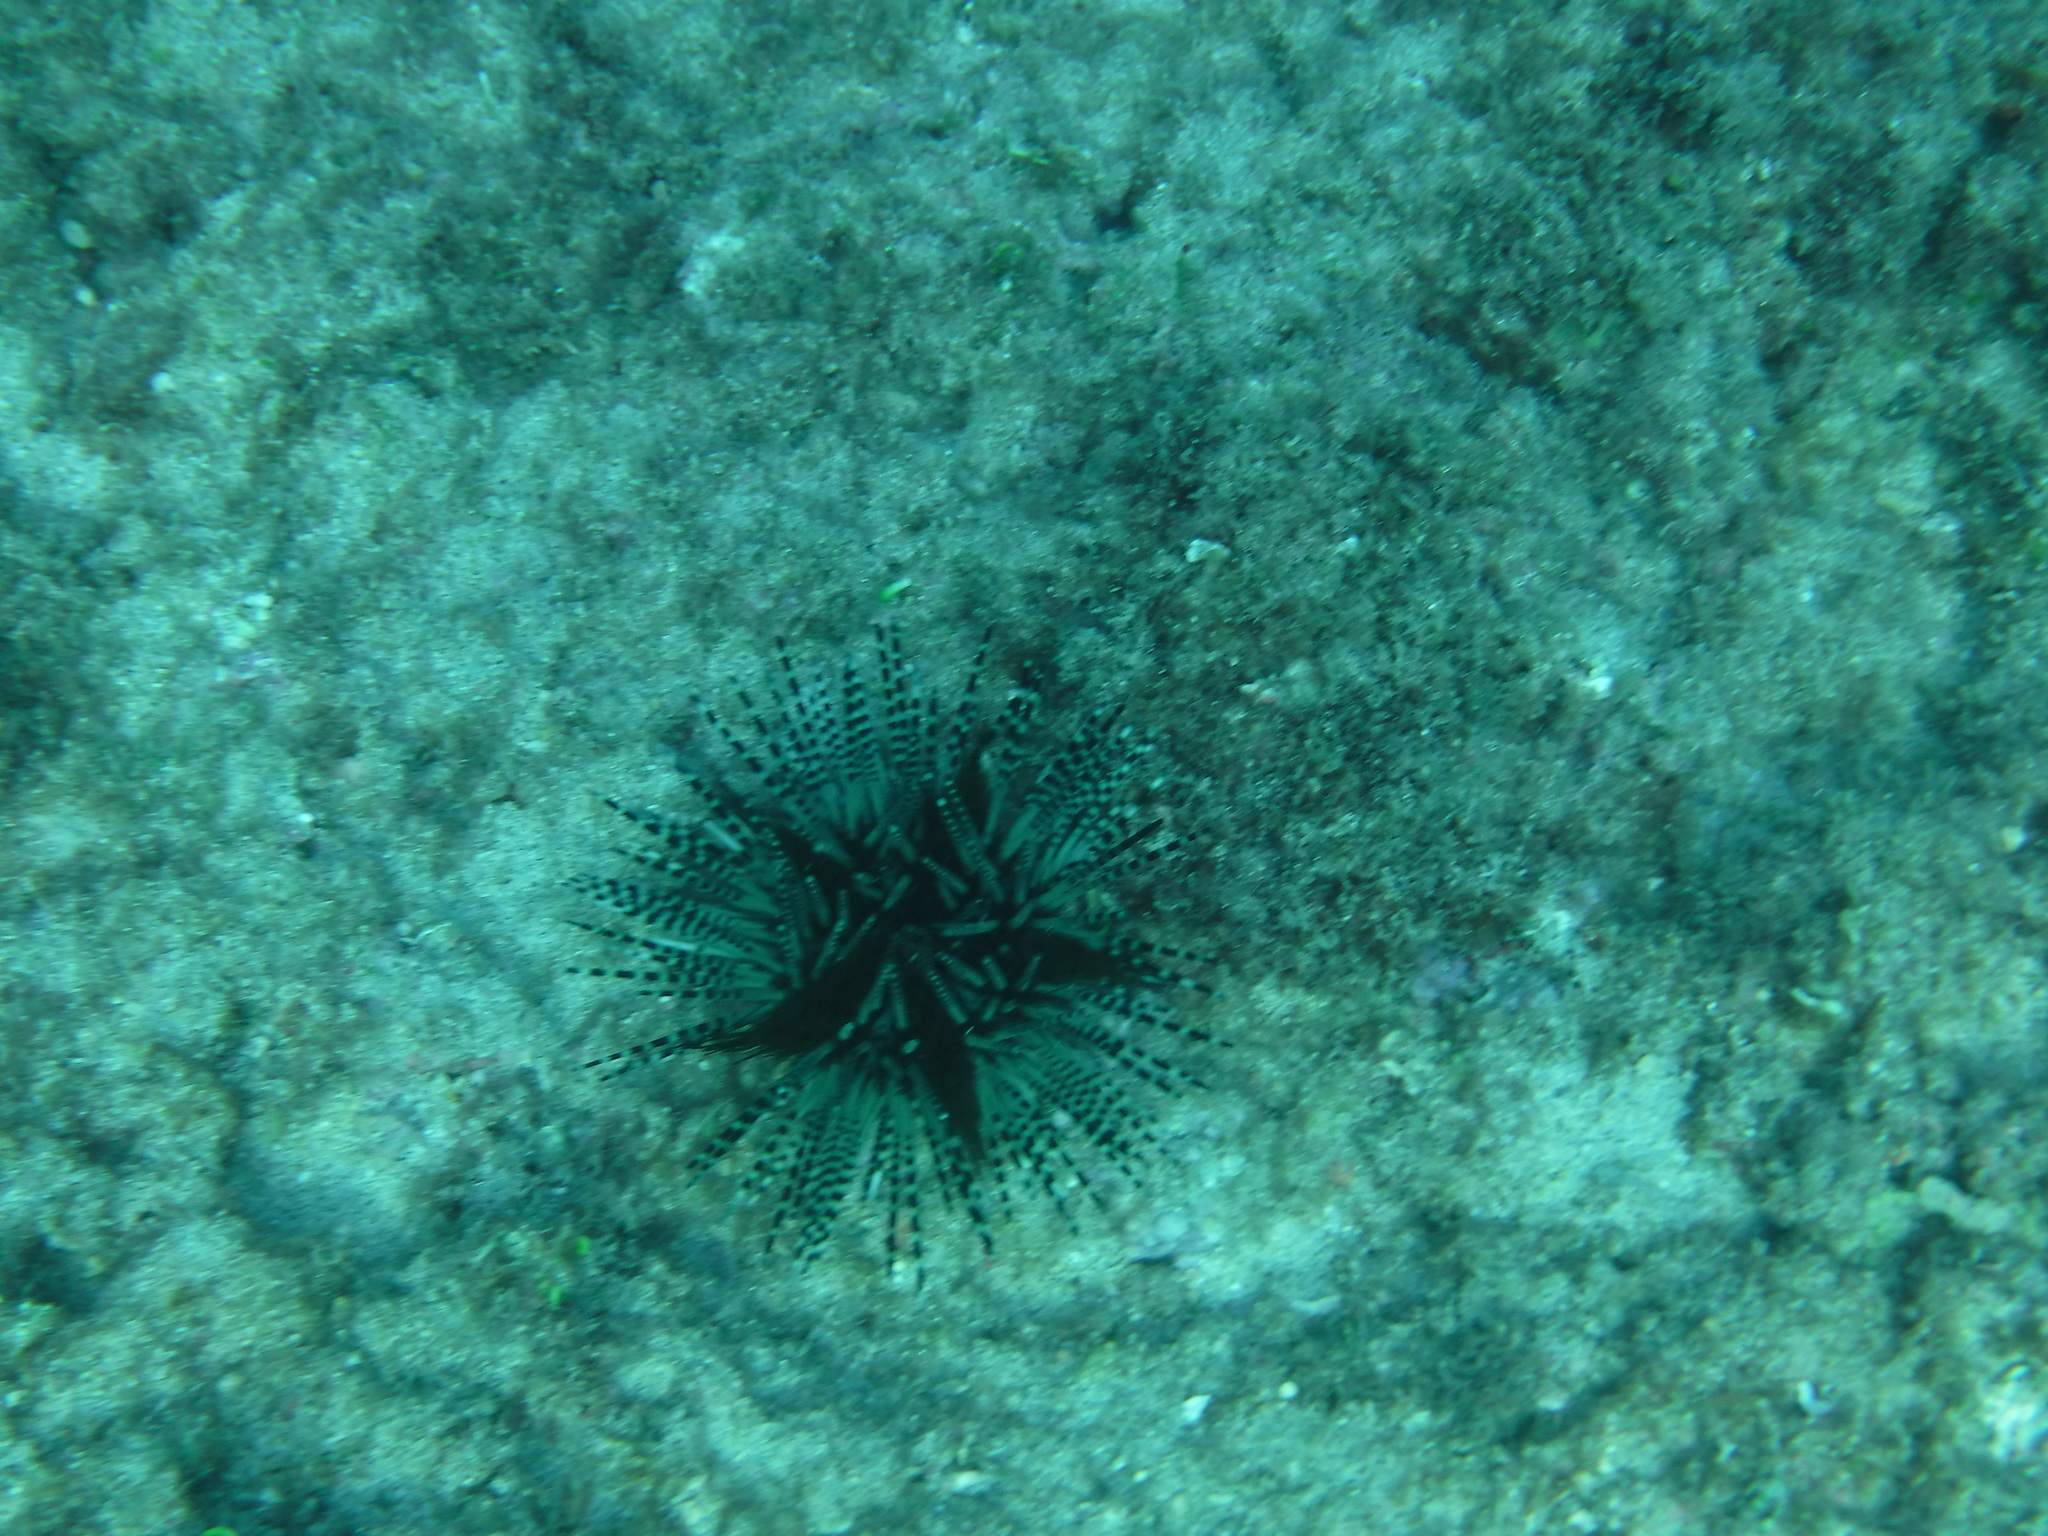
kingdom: Animalia
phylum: Echinodermata
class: Echinoidea
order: Diadematoida
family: Diadematidae
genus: Echinothrix
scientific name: Echinothrix calamaris
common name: Banded sea urchin
